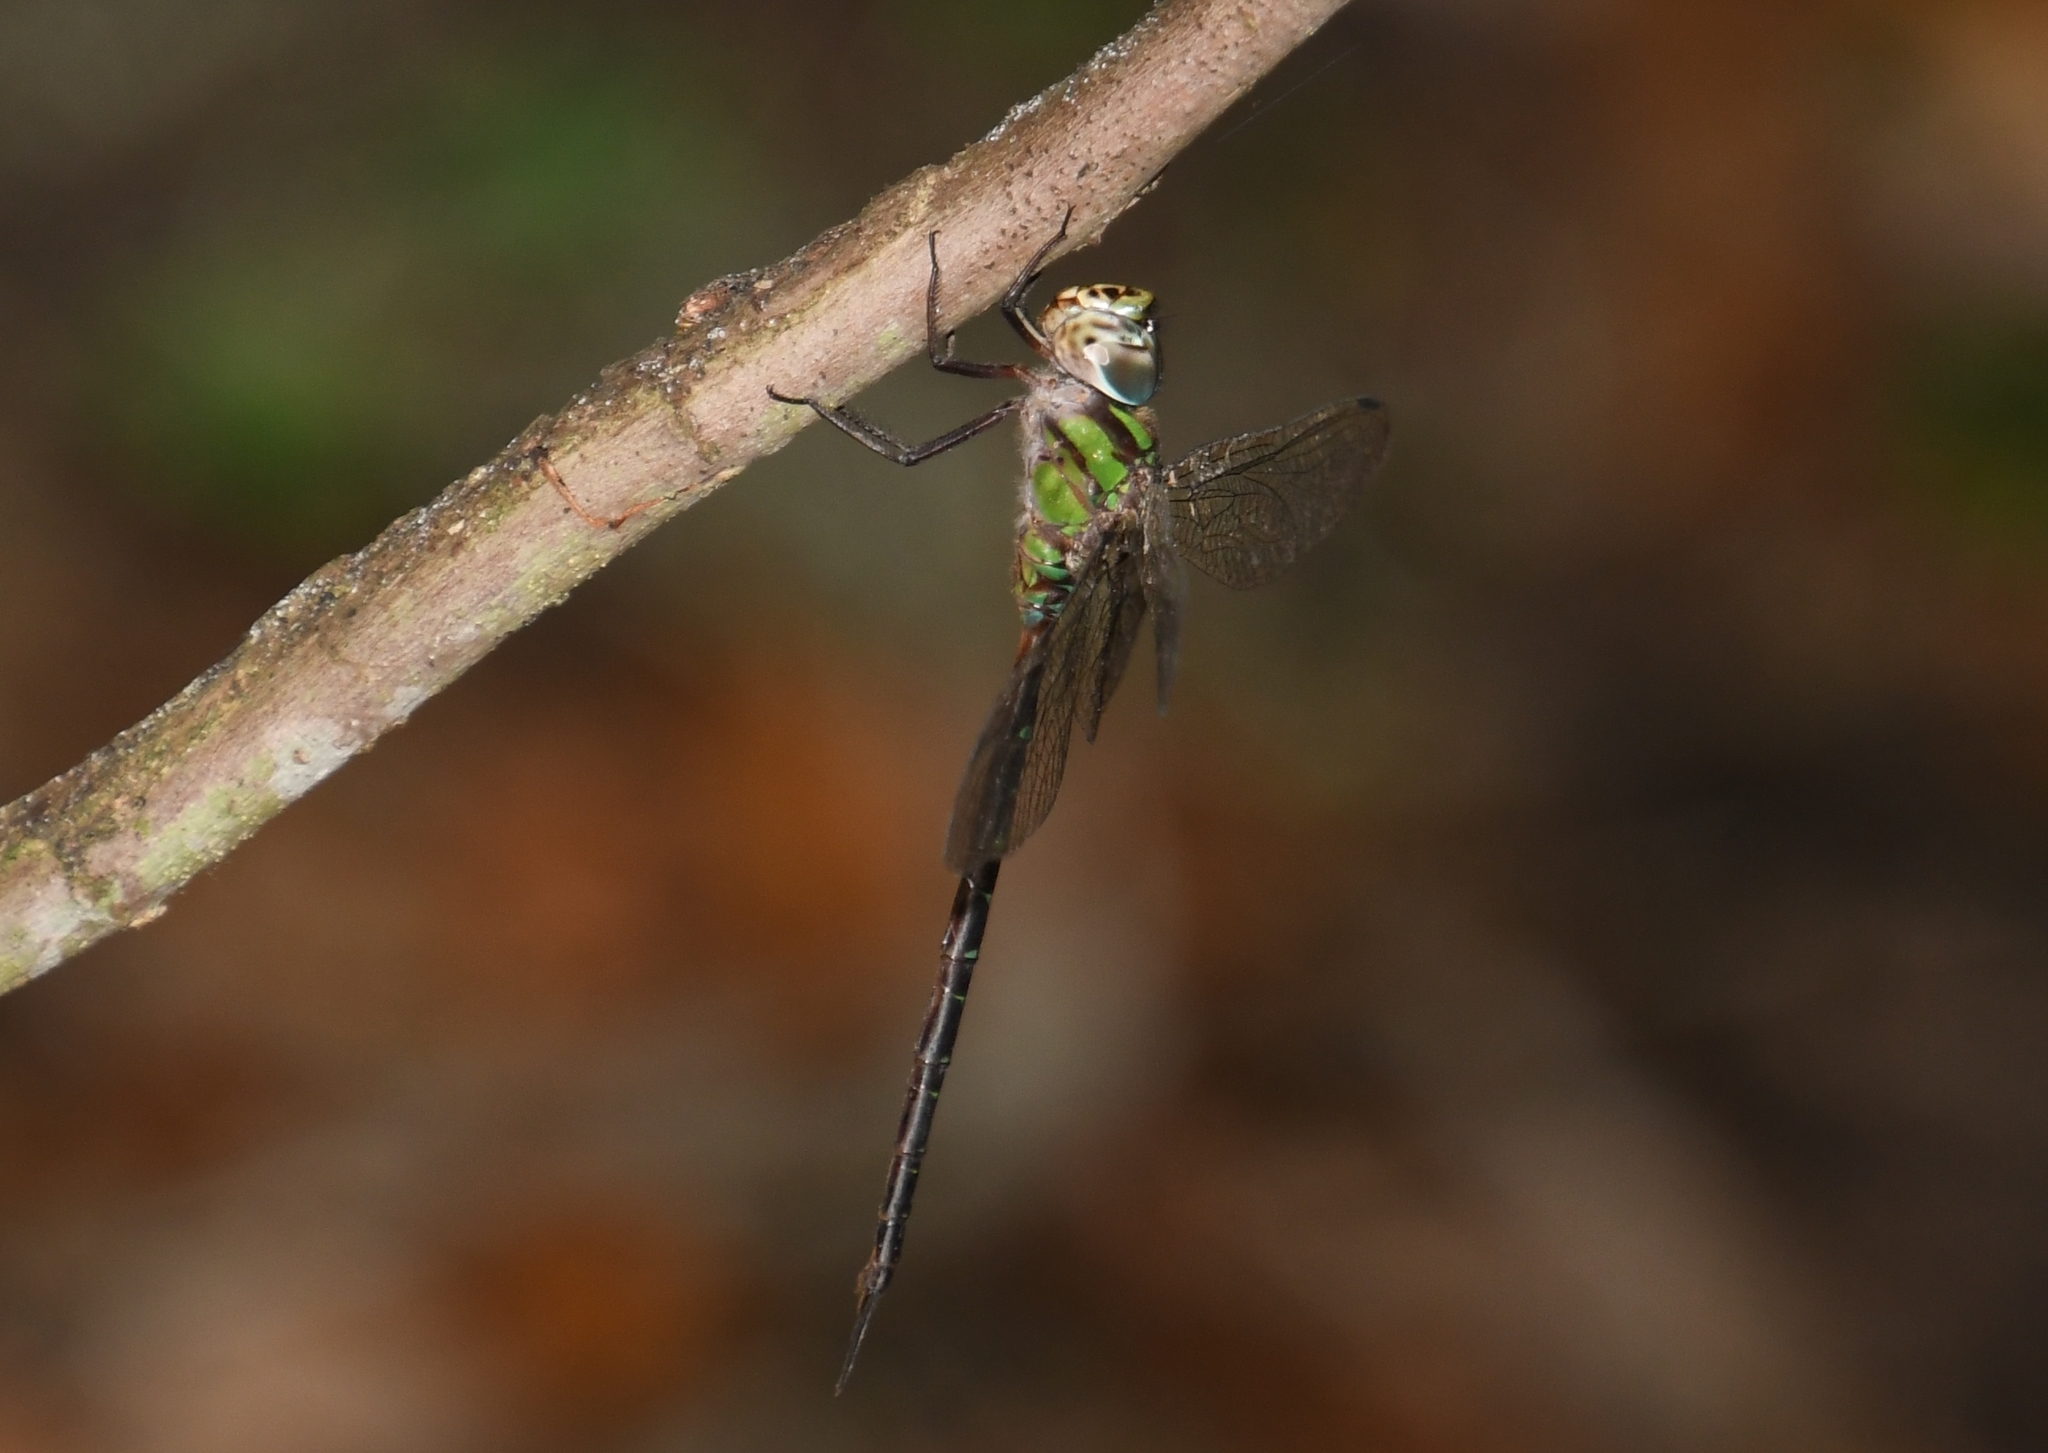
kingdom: Animalia
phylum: Arthropoda
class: Insecta
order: Odonata
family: Aeshnidae
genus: Triacanthagyna
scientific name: Triacanthagyna trifida
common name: Phantom darner
